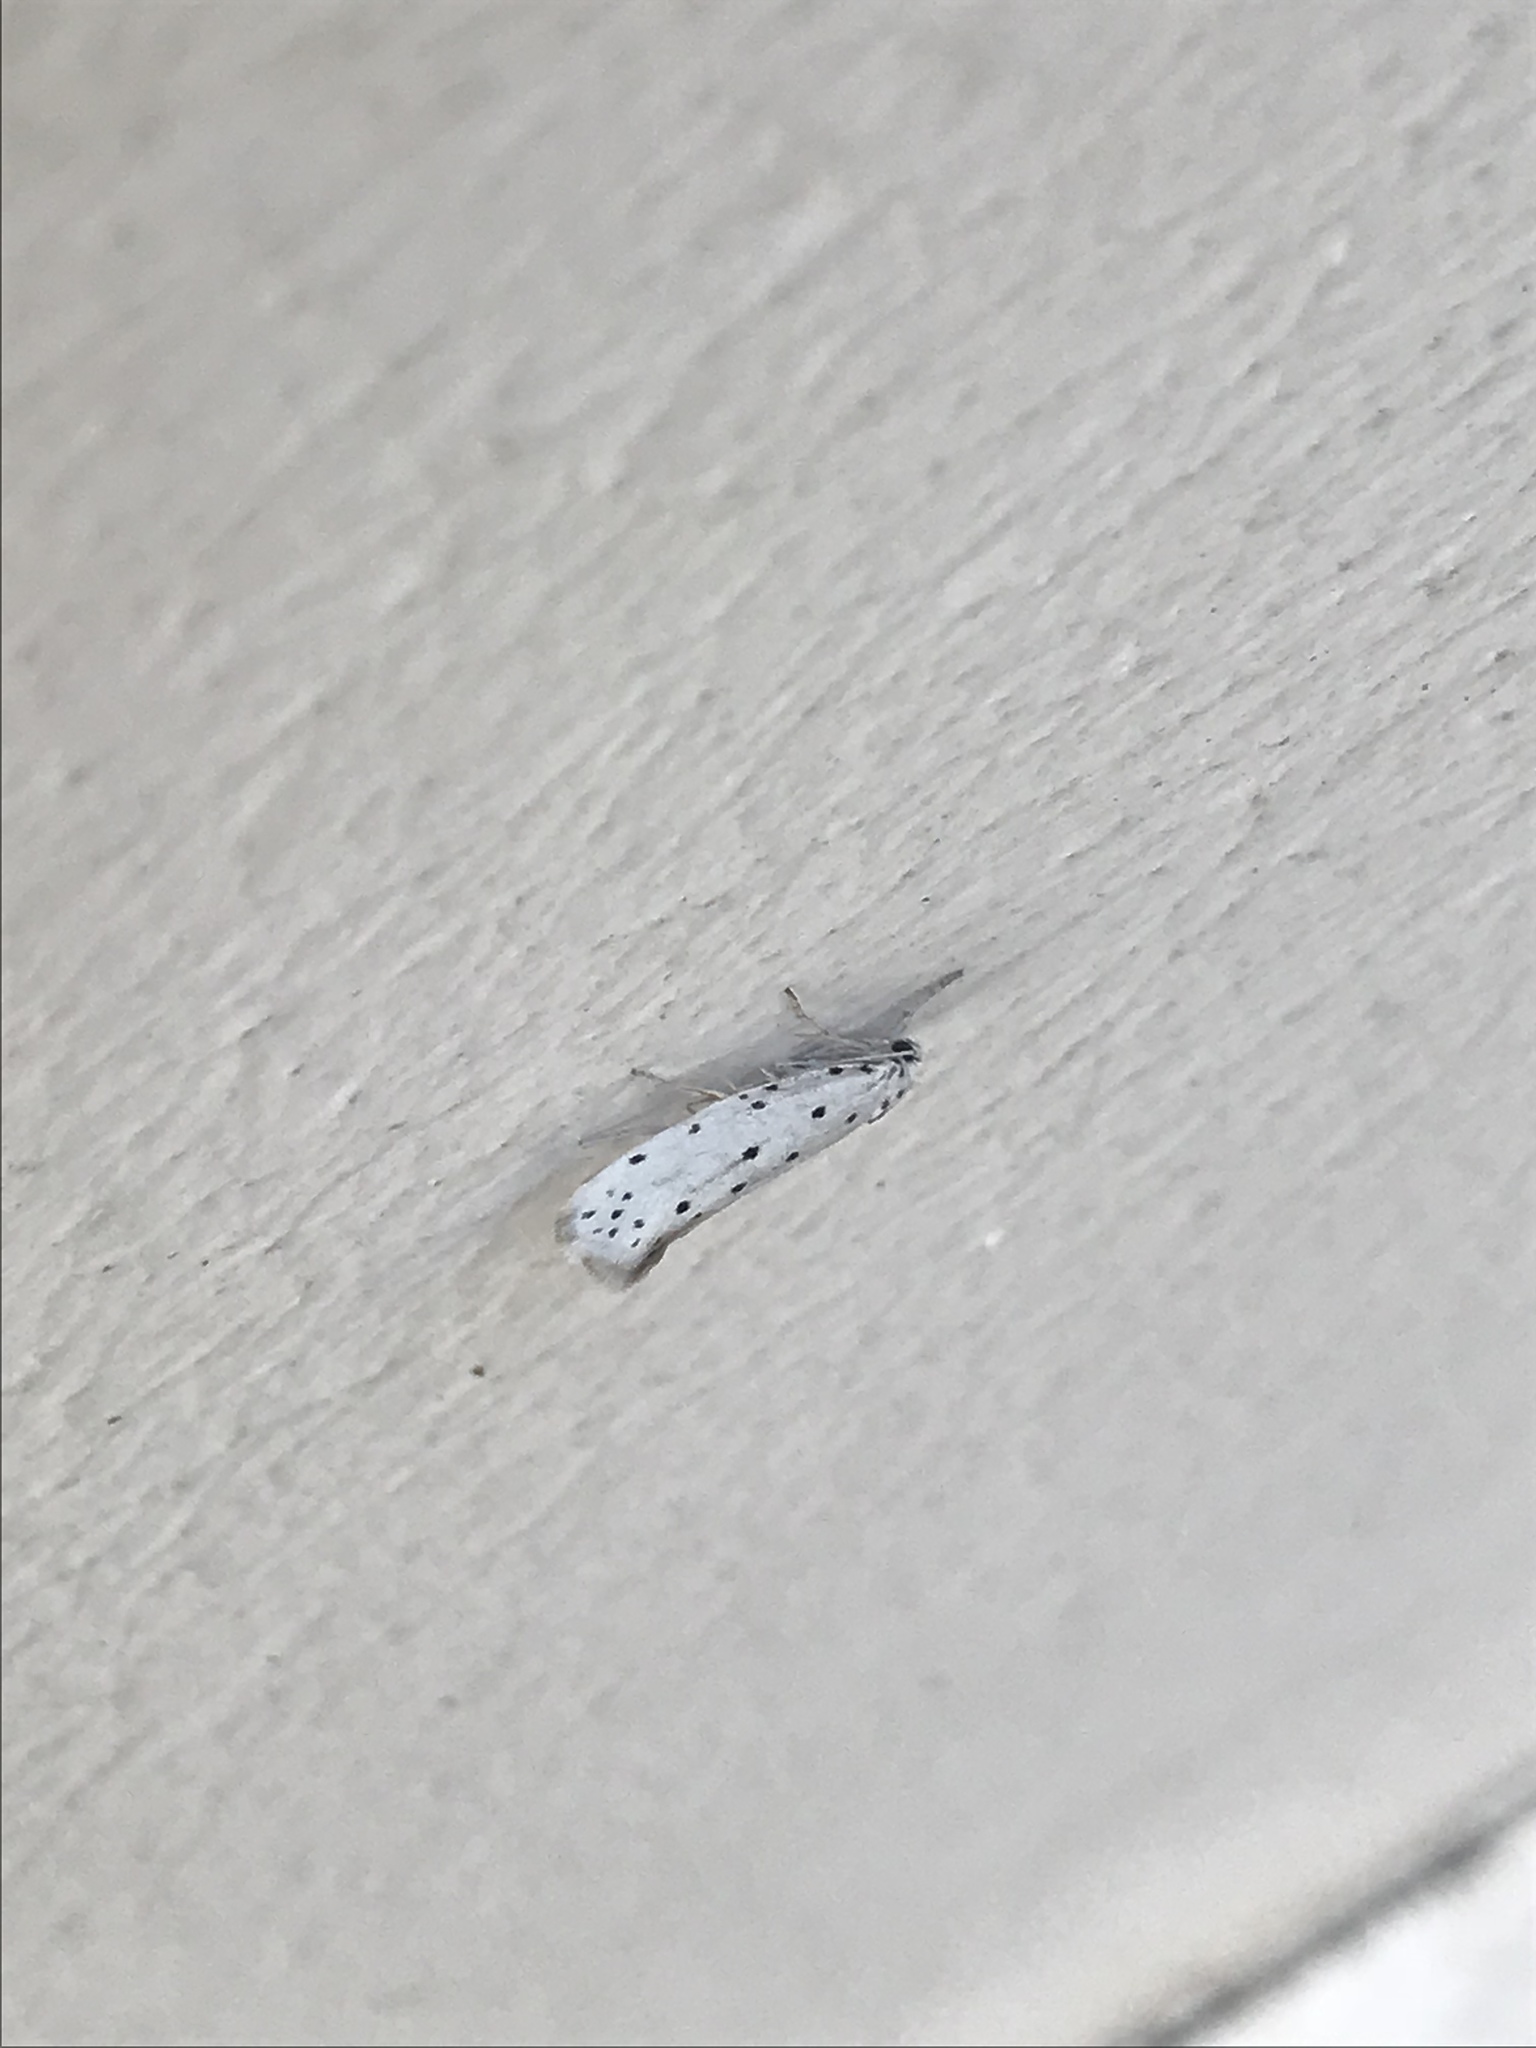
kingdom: Animalia
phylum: Arthropoda
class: Insecta
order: Lepidoptera
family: Yponomeutidae
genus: Yponomeuta
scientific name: Yponomeuta padella
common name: Orchard ermine
